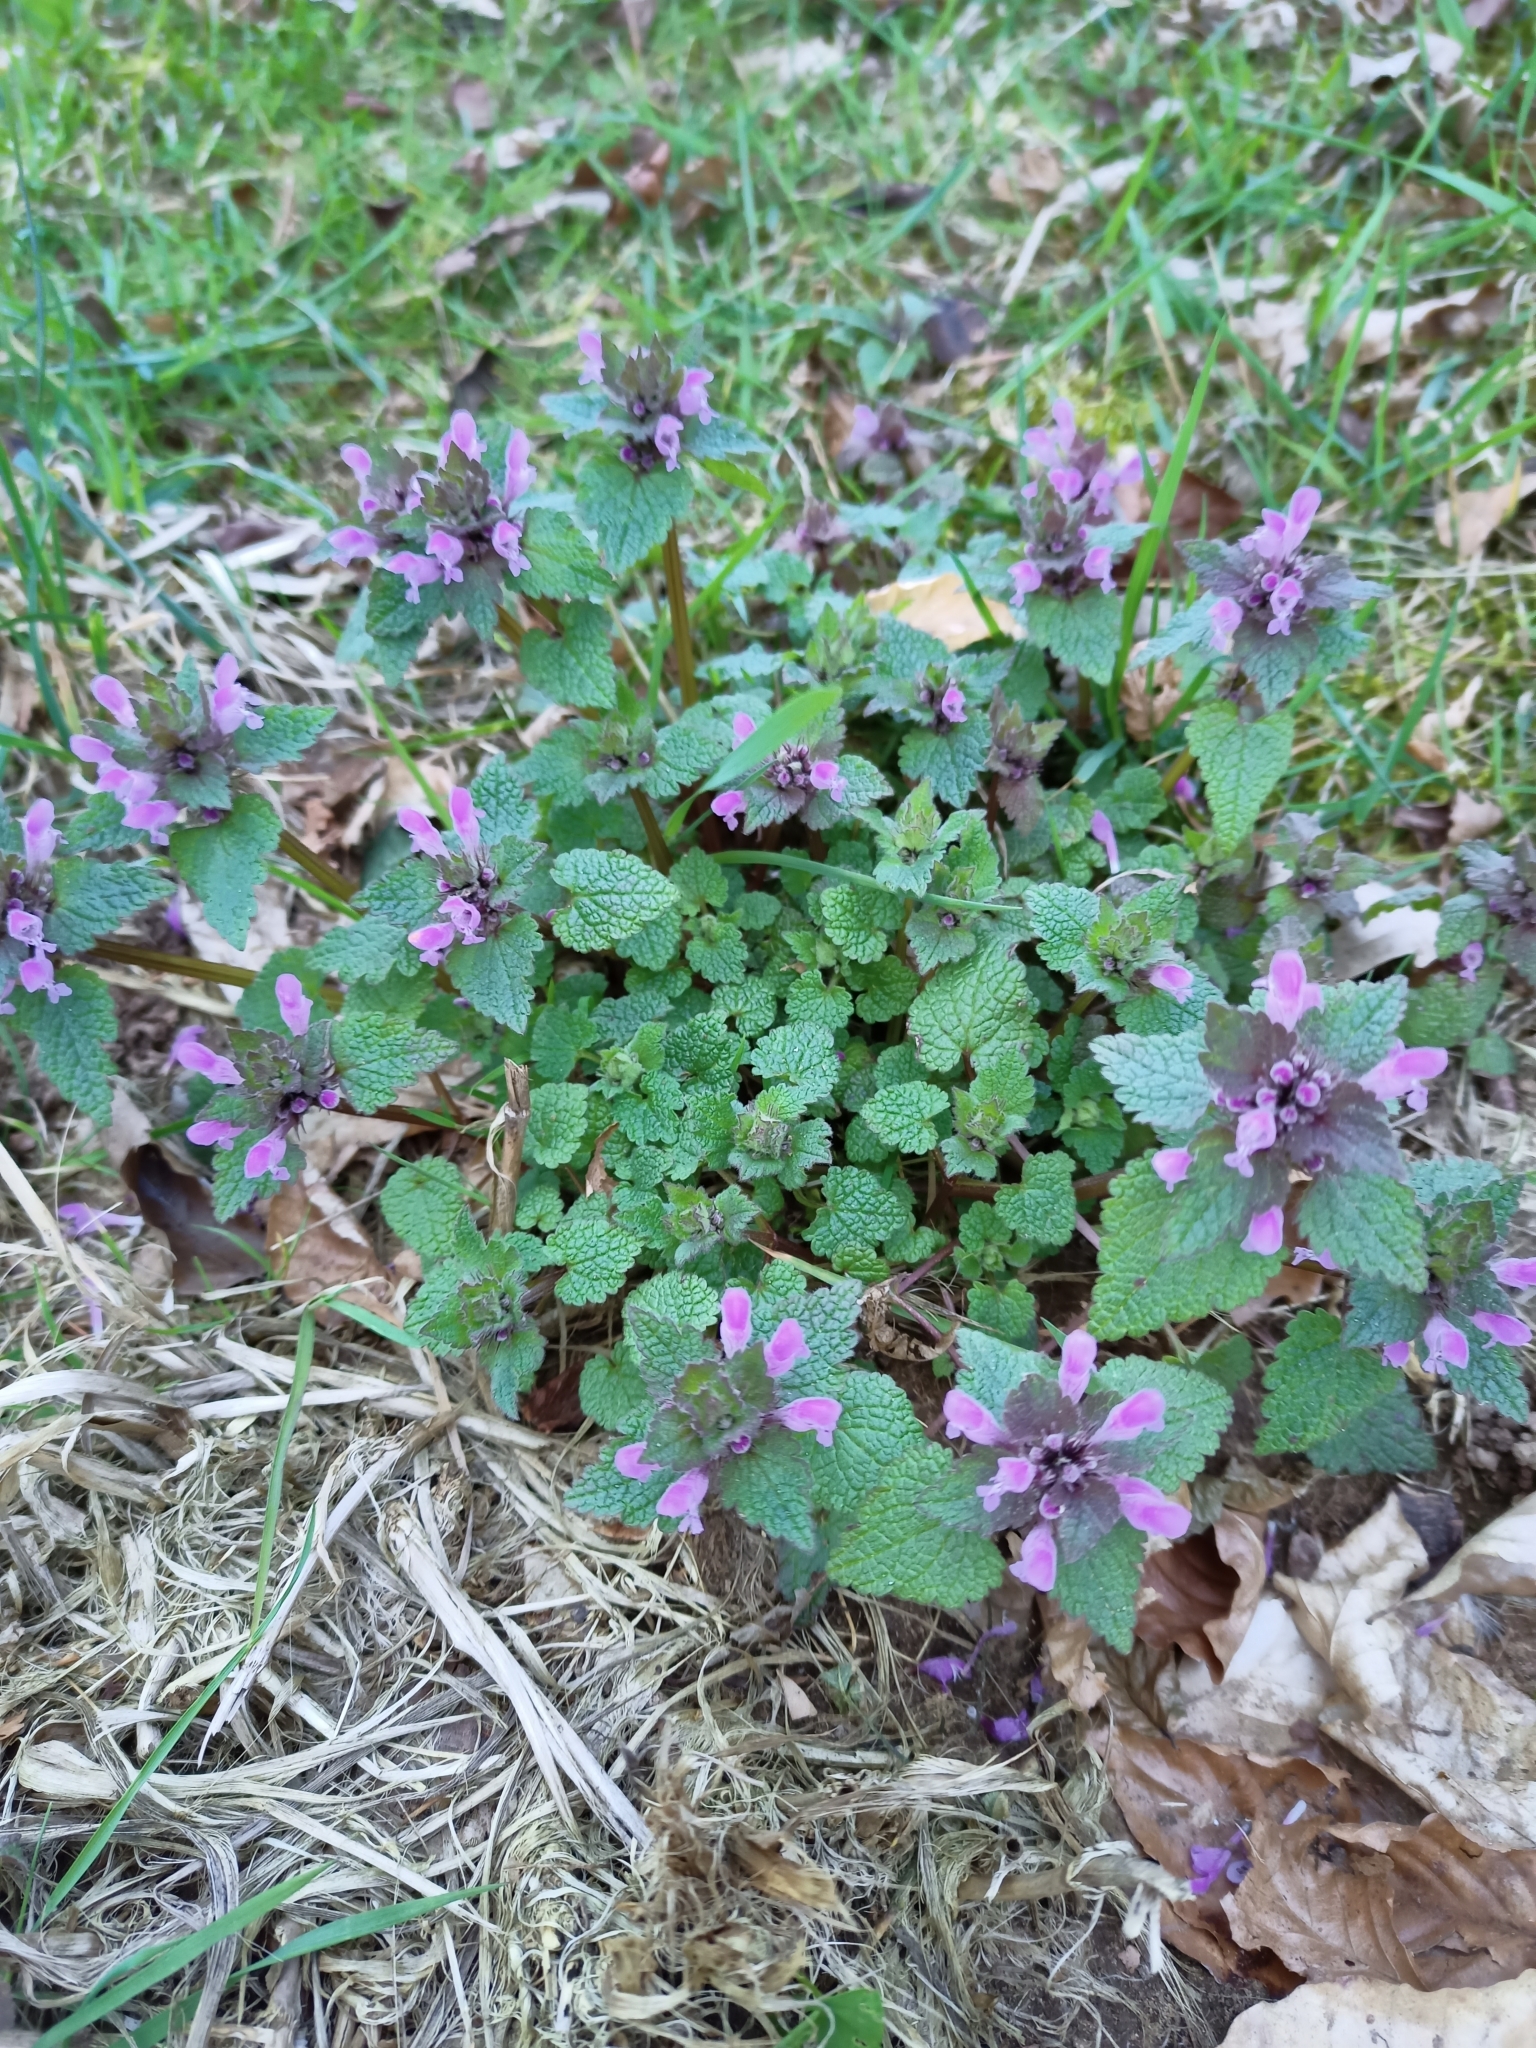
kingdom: Plantae
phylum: Tracheophyta
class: Magnoliopsida
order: Lamiales
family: Lamiaceae
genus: Lamium
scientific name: Lamium purpureum
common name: Red dead-nettle
